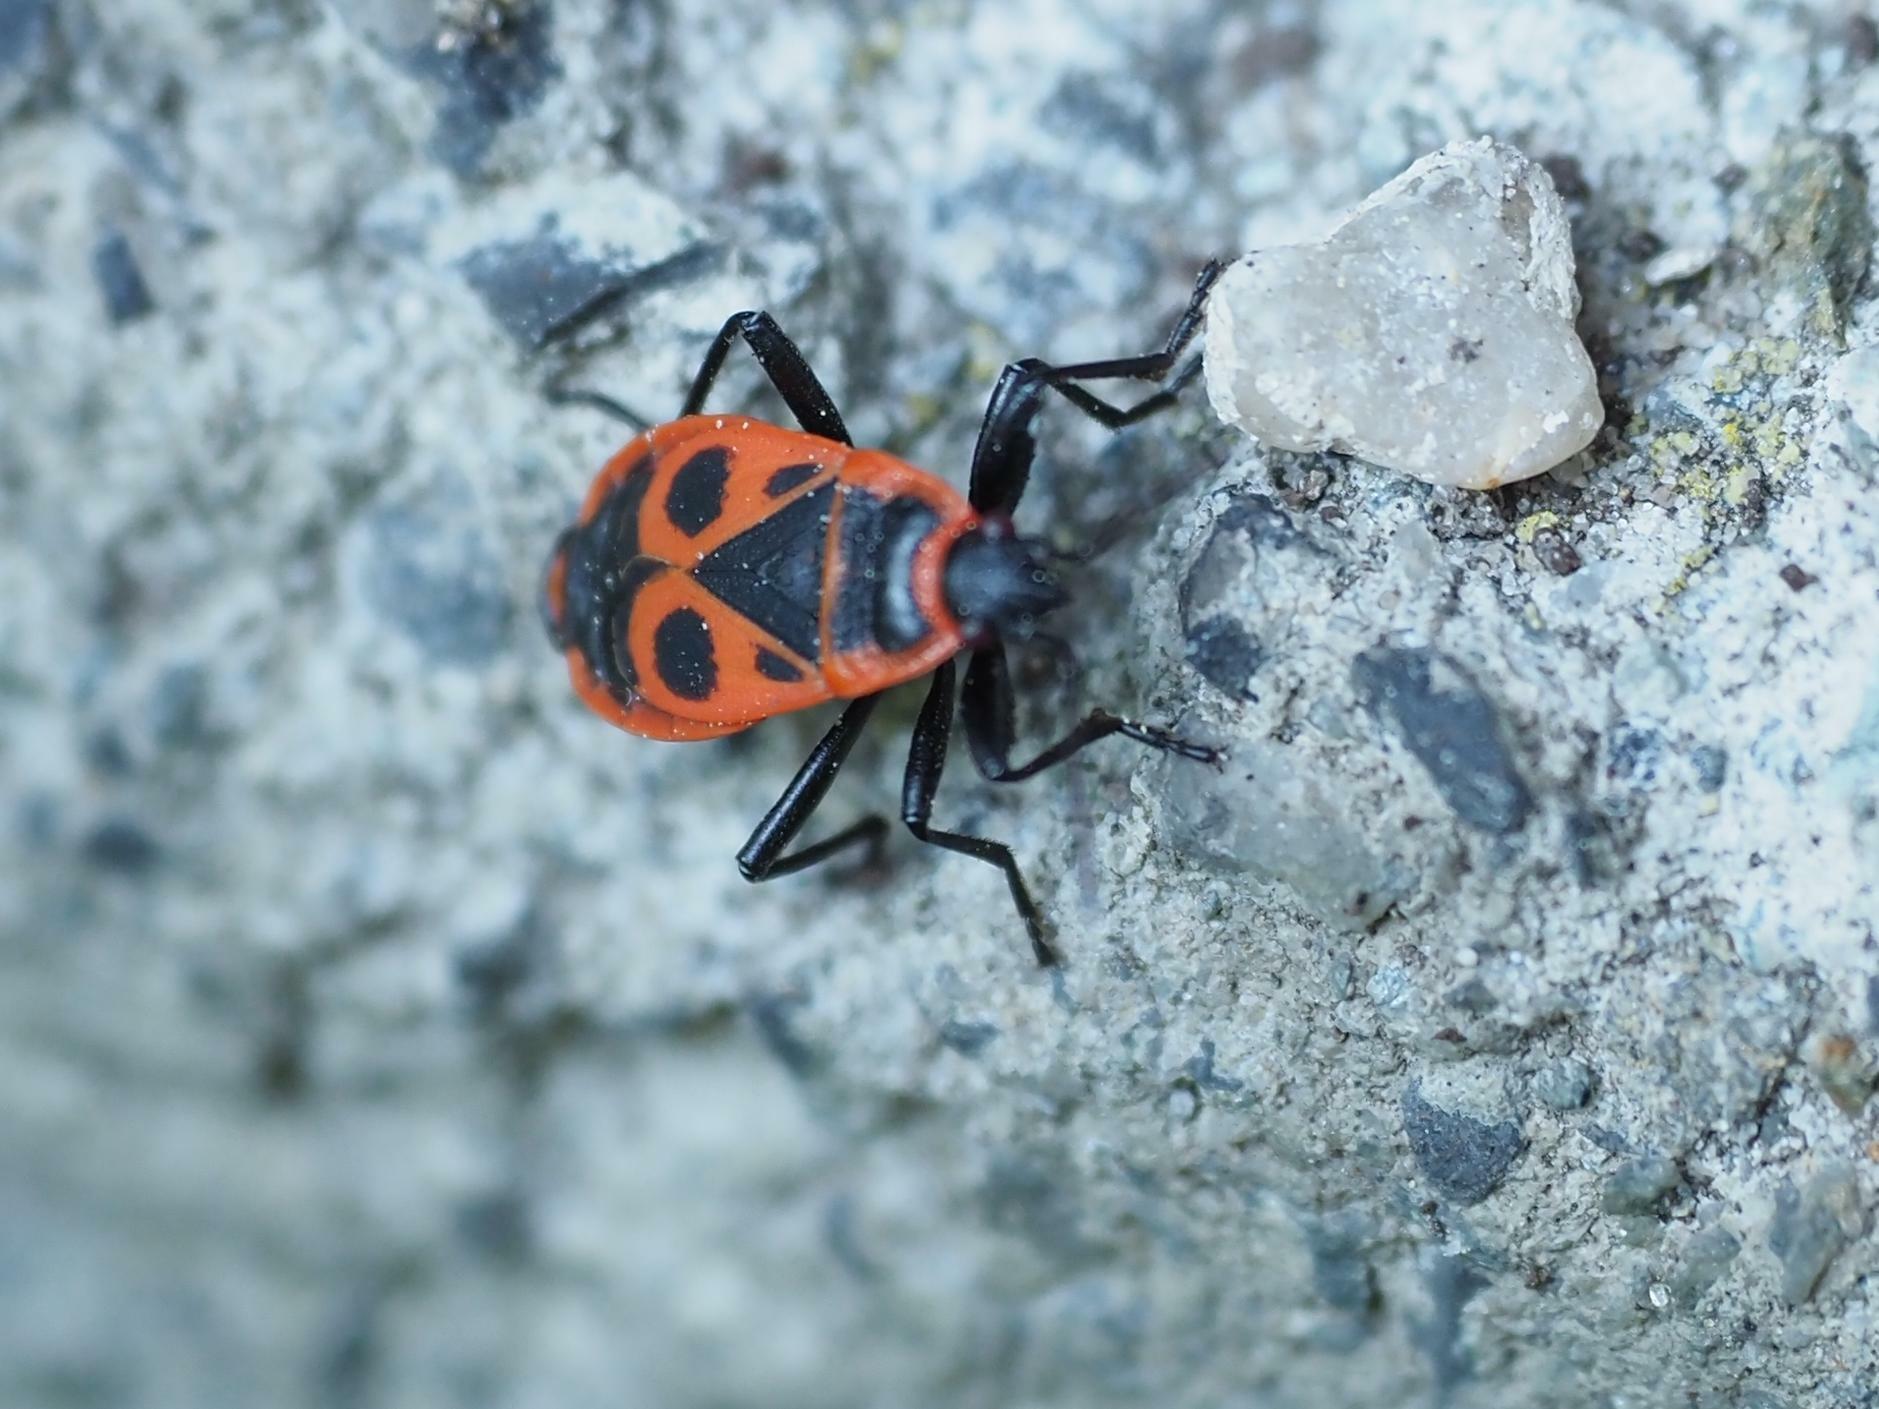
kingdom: Animalia
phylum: Arthropoda
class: Insecta
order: Hemiptera
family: Pyrrhocoridae
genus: Pyrrhocoris
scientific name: Pyrrhocoris apterus
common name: Firebug
